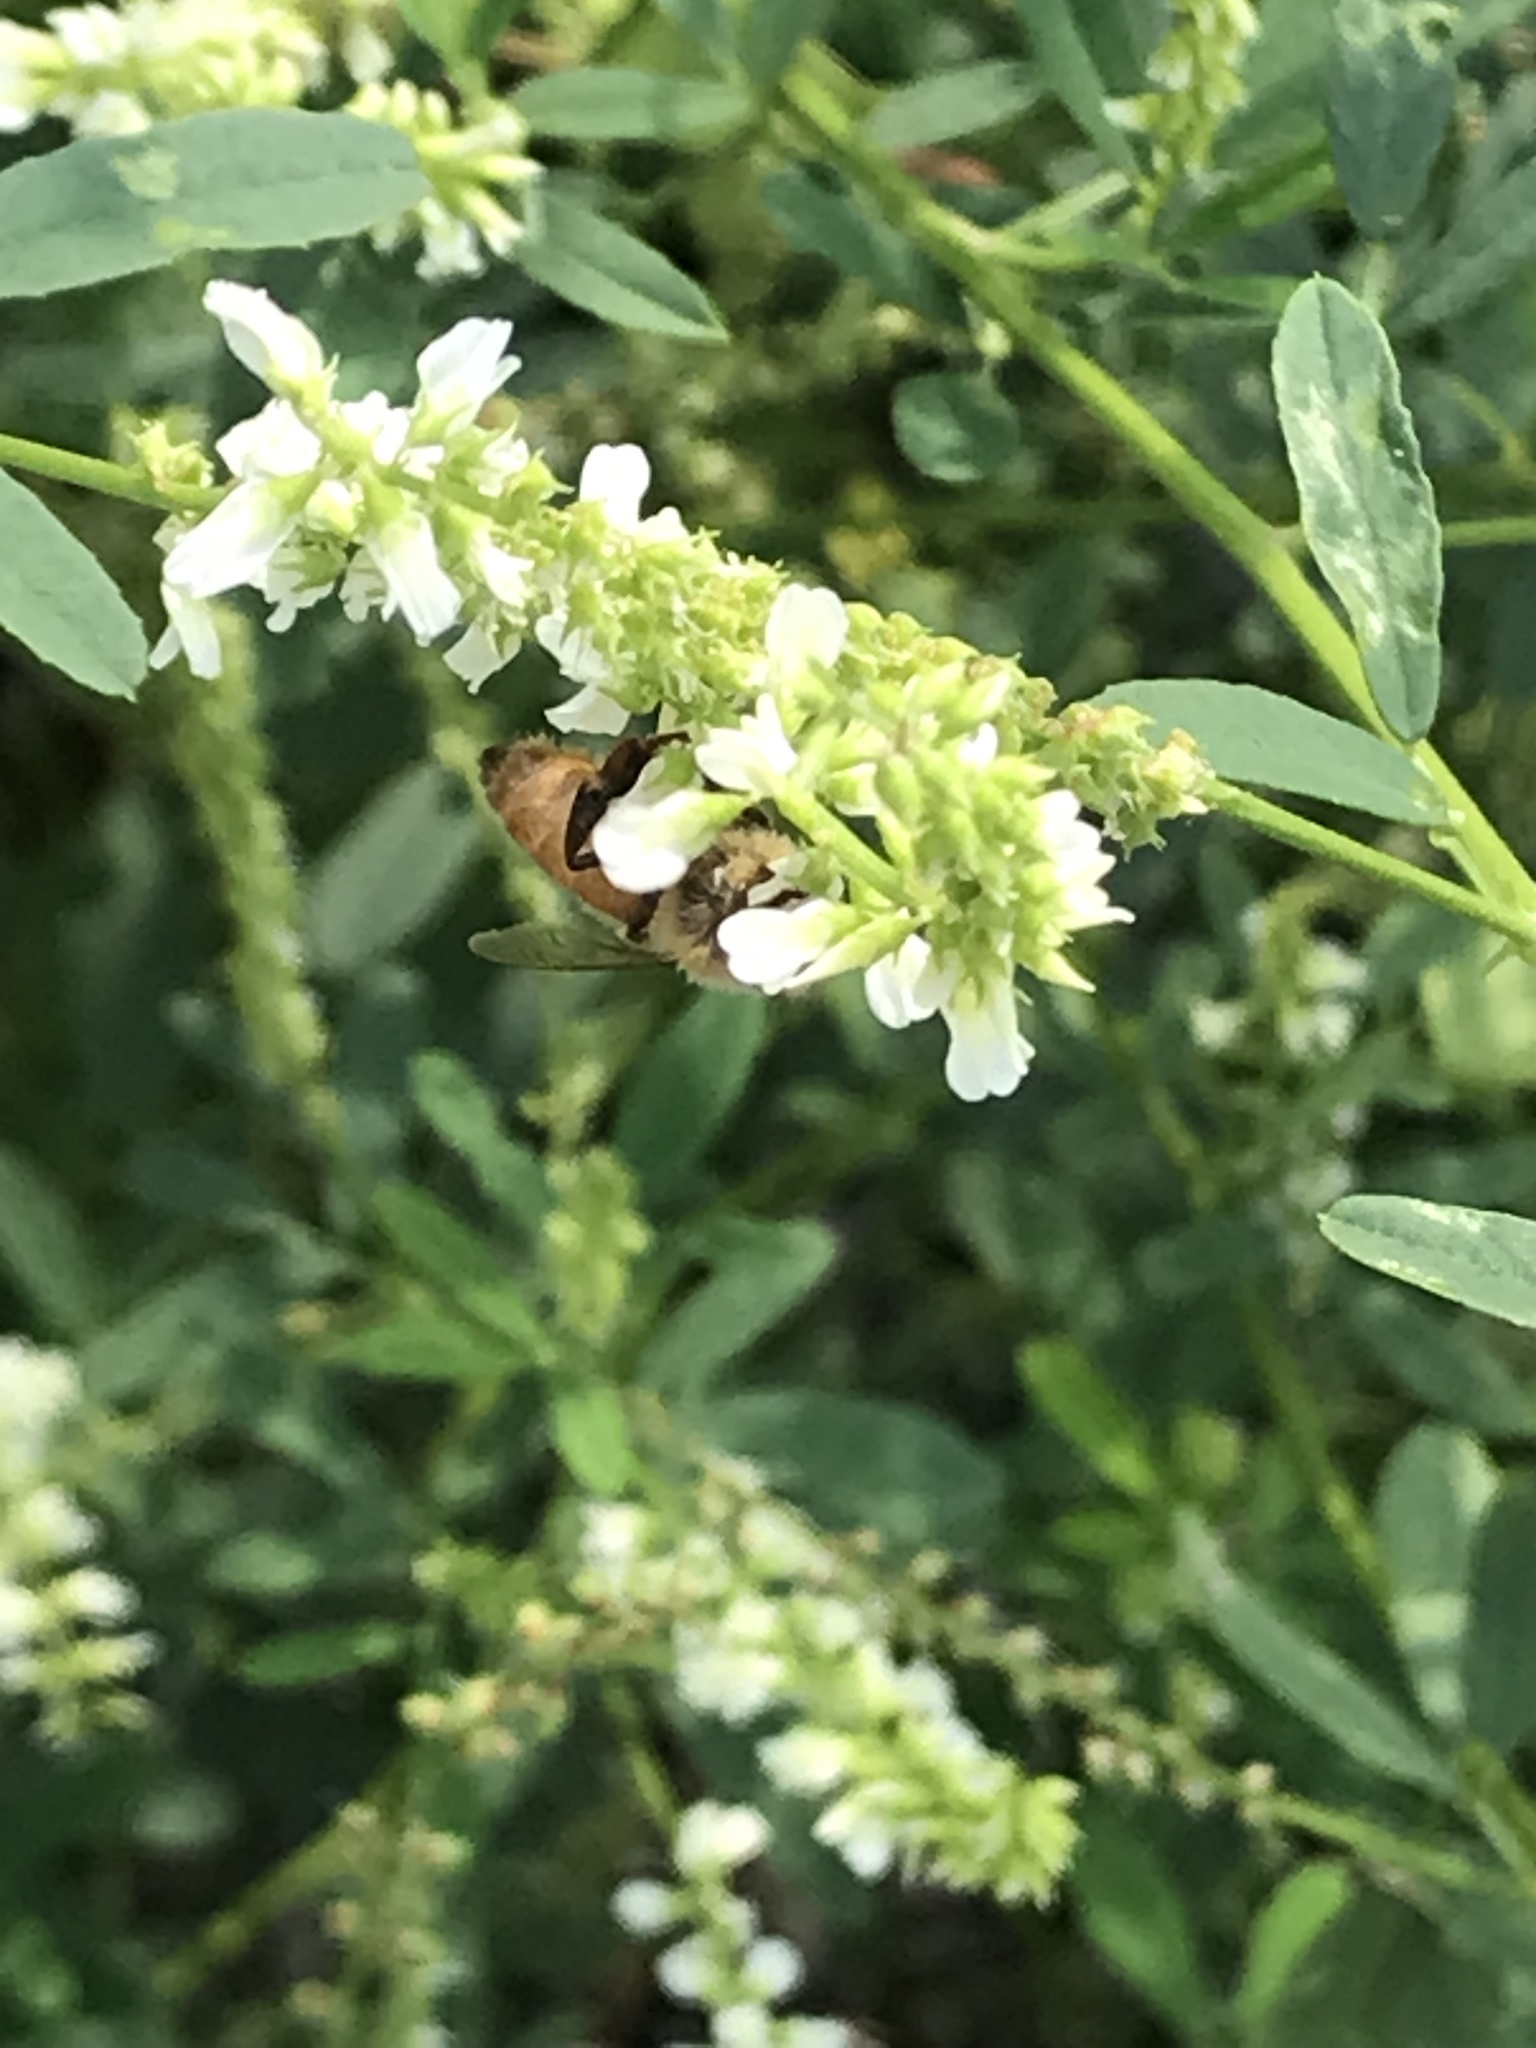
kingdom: Animalia
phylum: Arthropoda
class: Insecta
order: Hymenoptera
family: Apidae
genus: Apis
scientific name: Apis mellifera
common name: Honey bee
